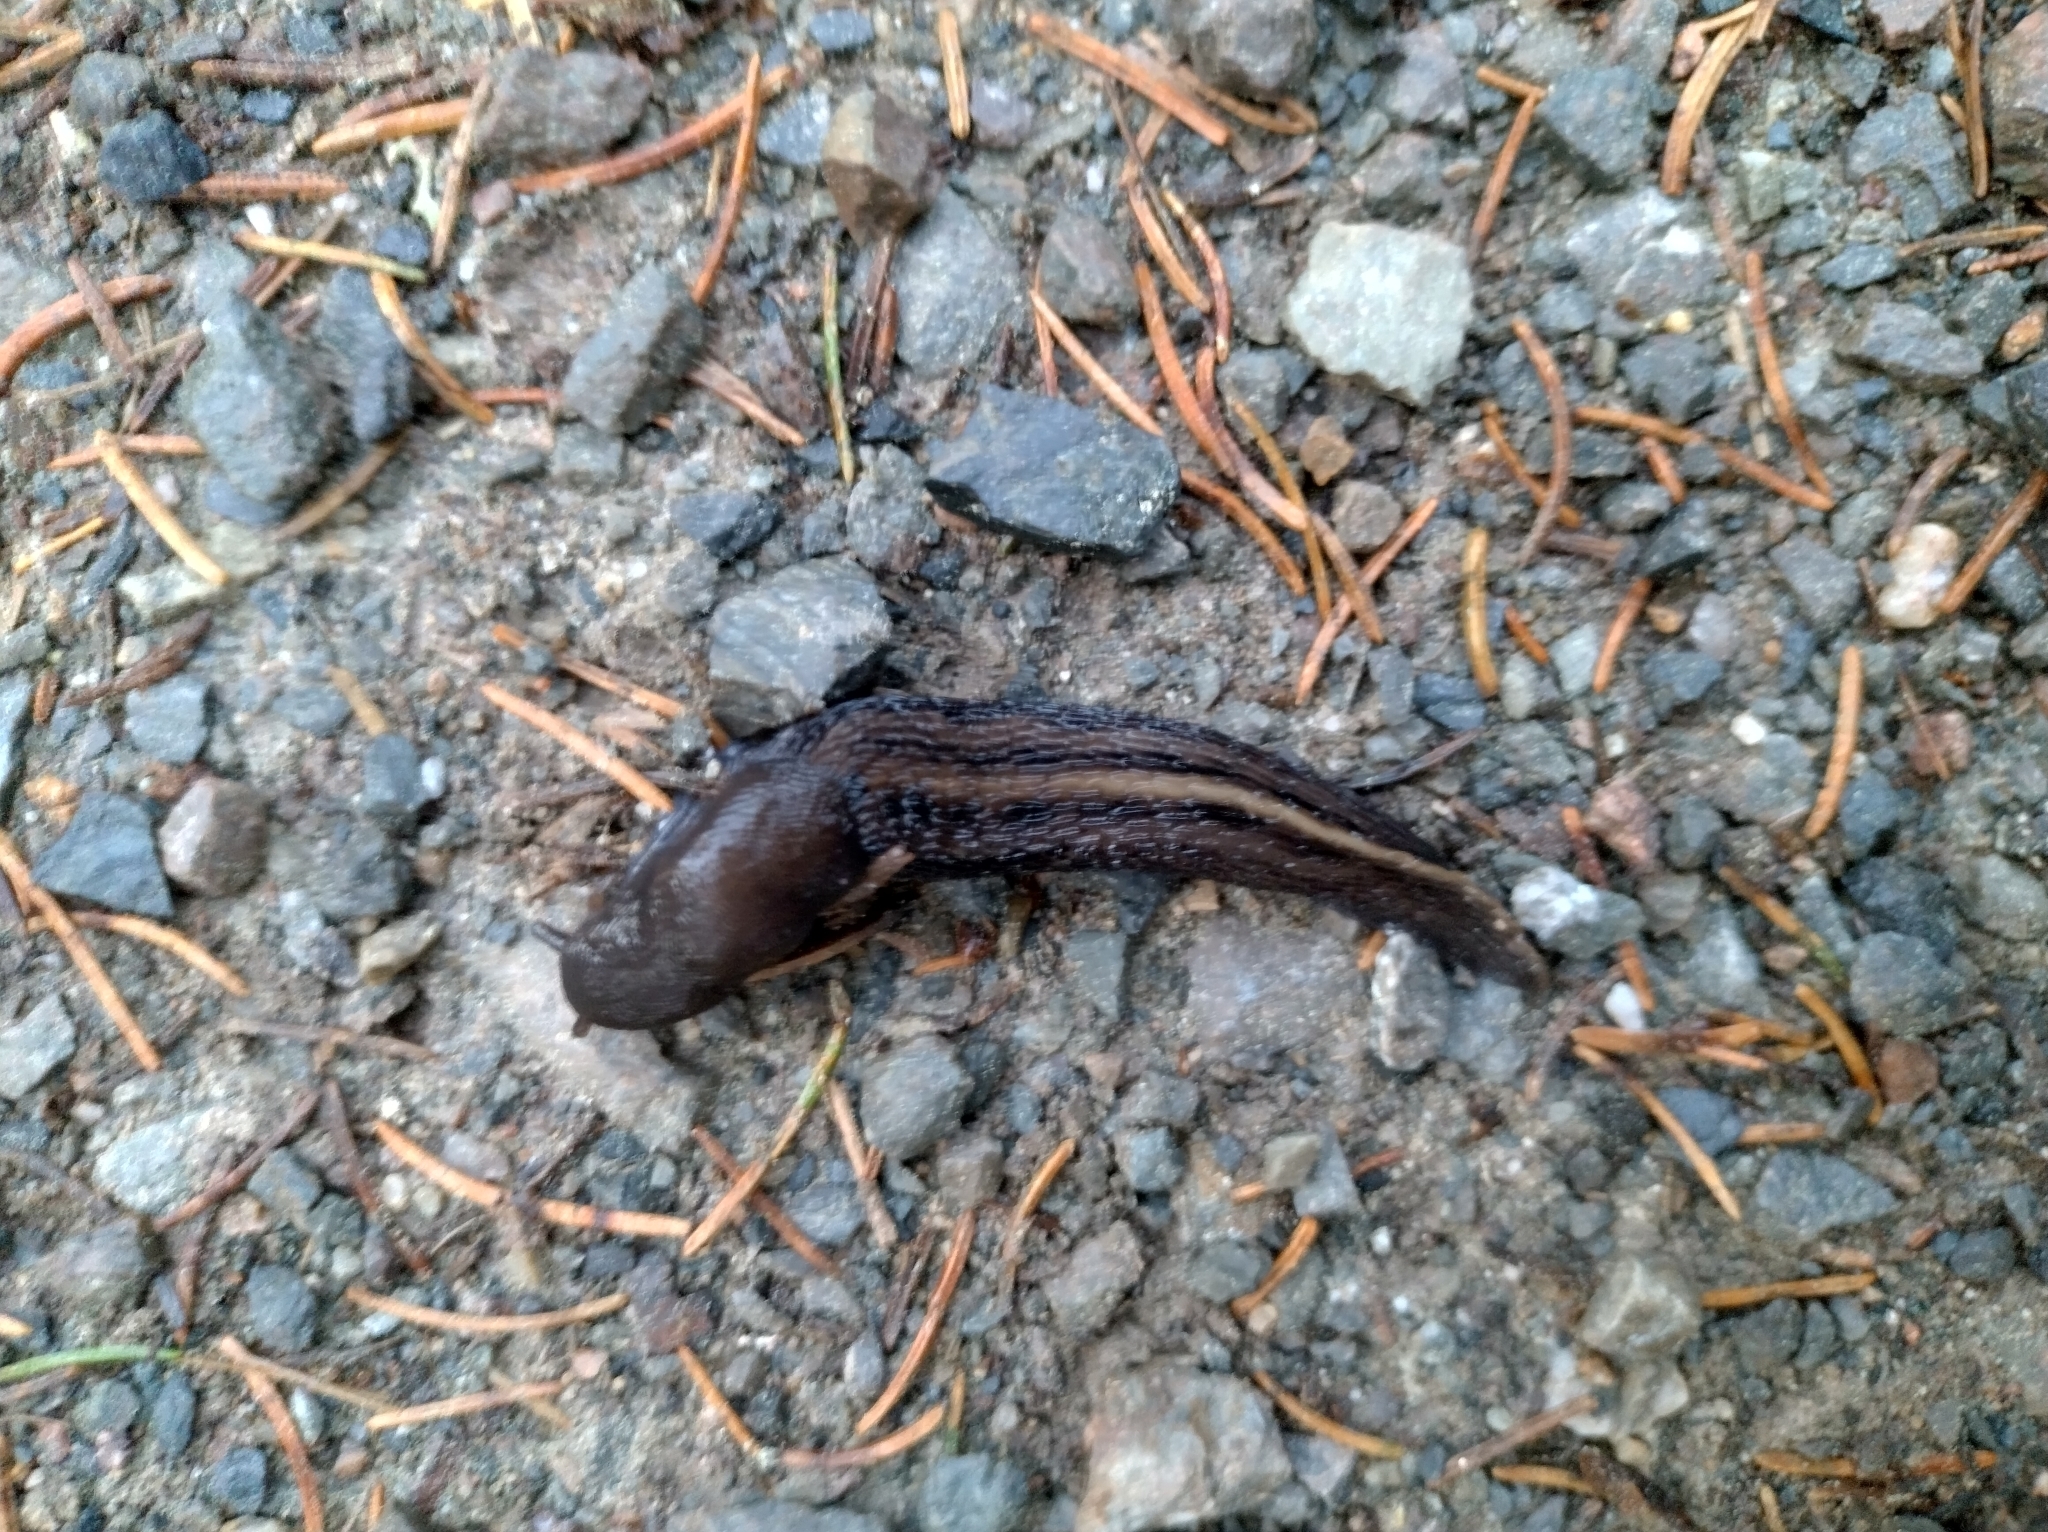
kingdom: Animalia
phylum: Mollusca
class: Gastropoda
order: Stylommatophora
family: Limacidae
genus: Limax
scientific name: Limax cinereoniger
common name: Ash-black slug
